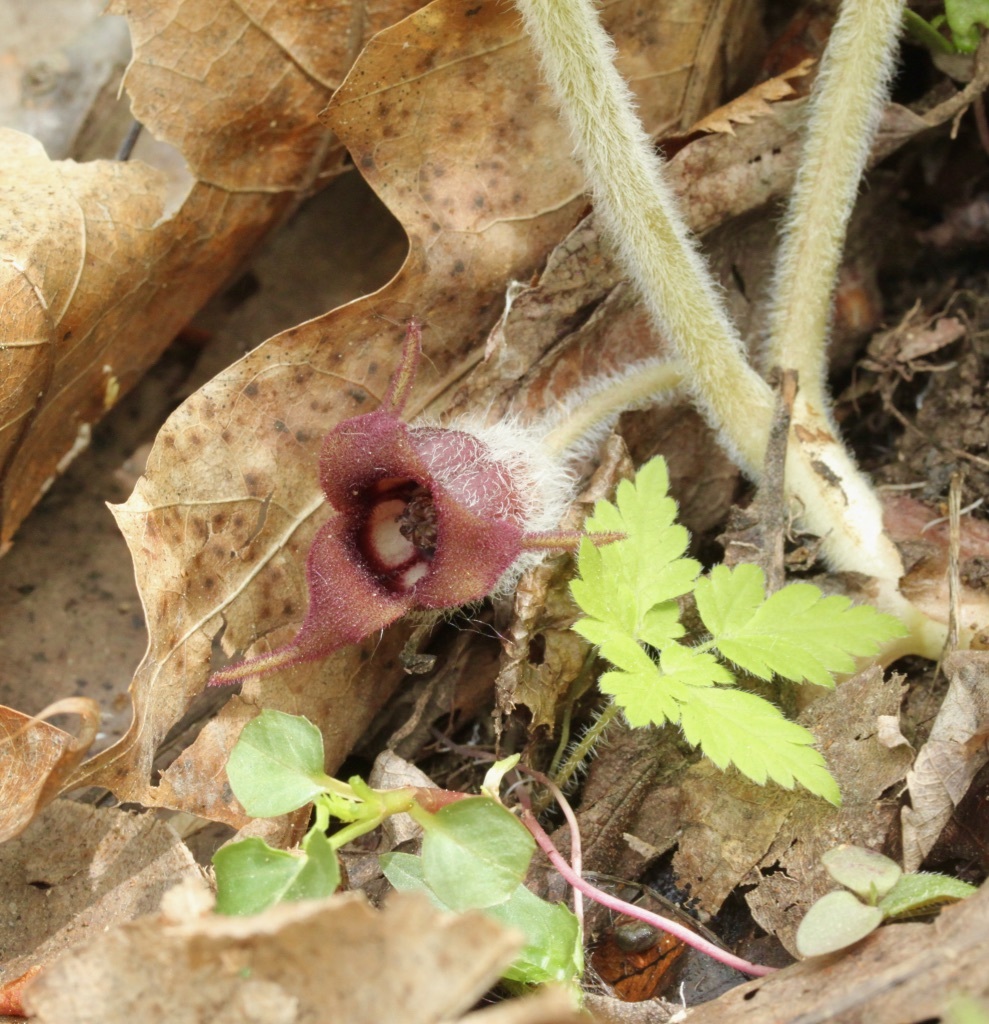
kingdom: Plantae
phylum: Tracheophyta
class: Magnoliopsida
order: Piperales
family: Aristolochiaceae
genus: Asarum
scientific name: Asarum canadense
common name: Wild ginger
